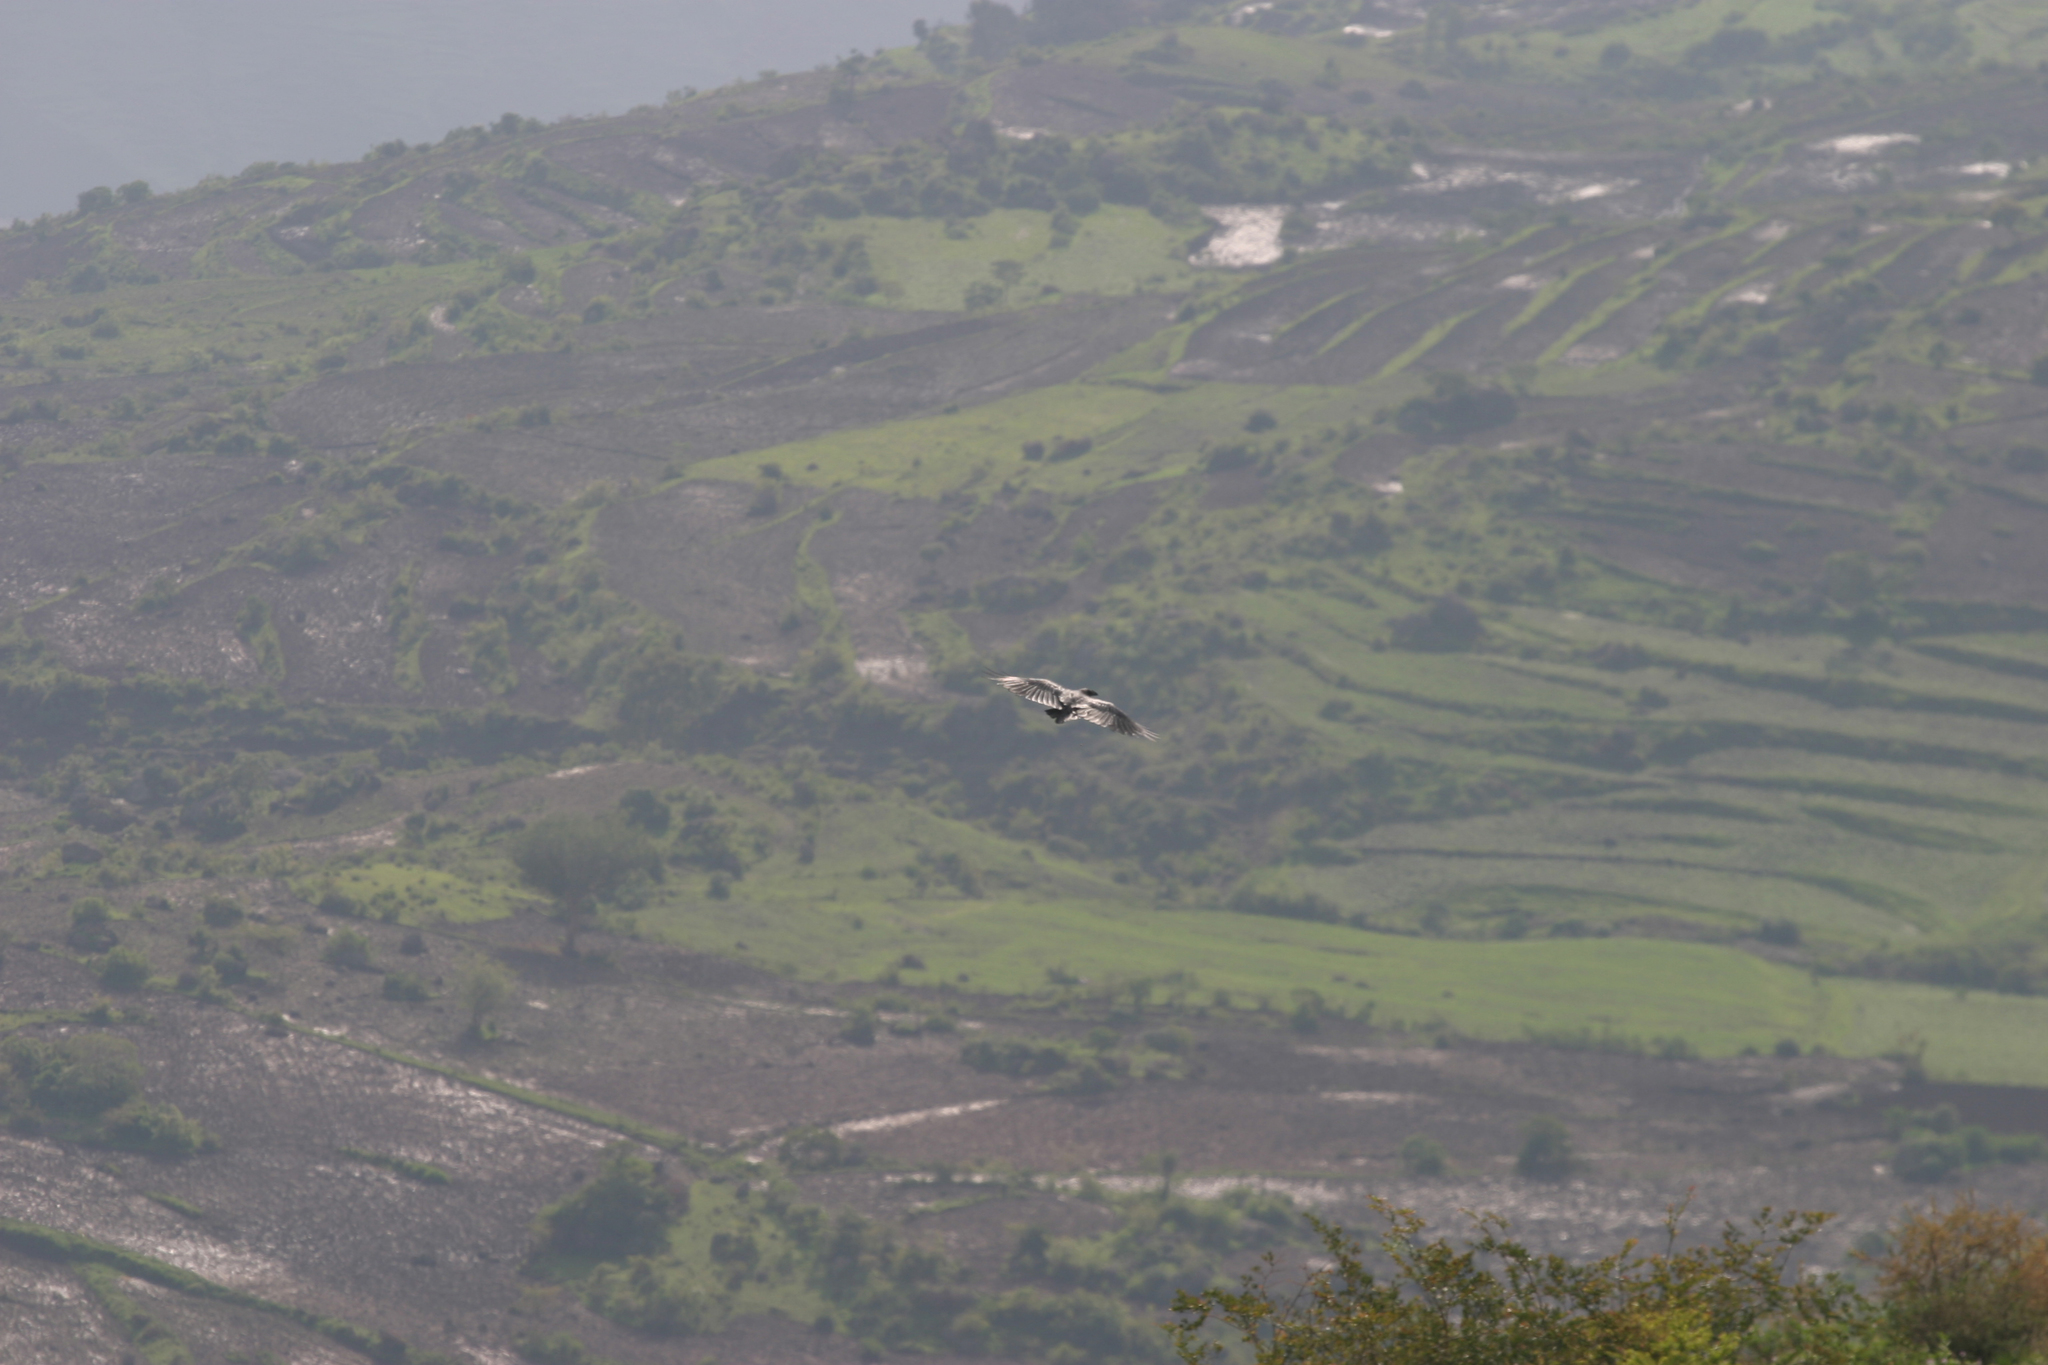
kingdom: Animalia
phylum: Chordata
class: Aves
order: Passeriformes
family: Corvidae
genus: Corvus
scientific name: Corvus rhipidurus
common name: Fan-tailed raven
